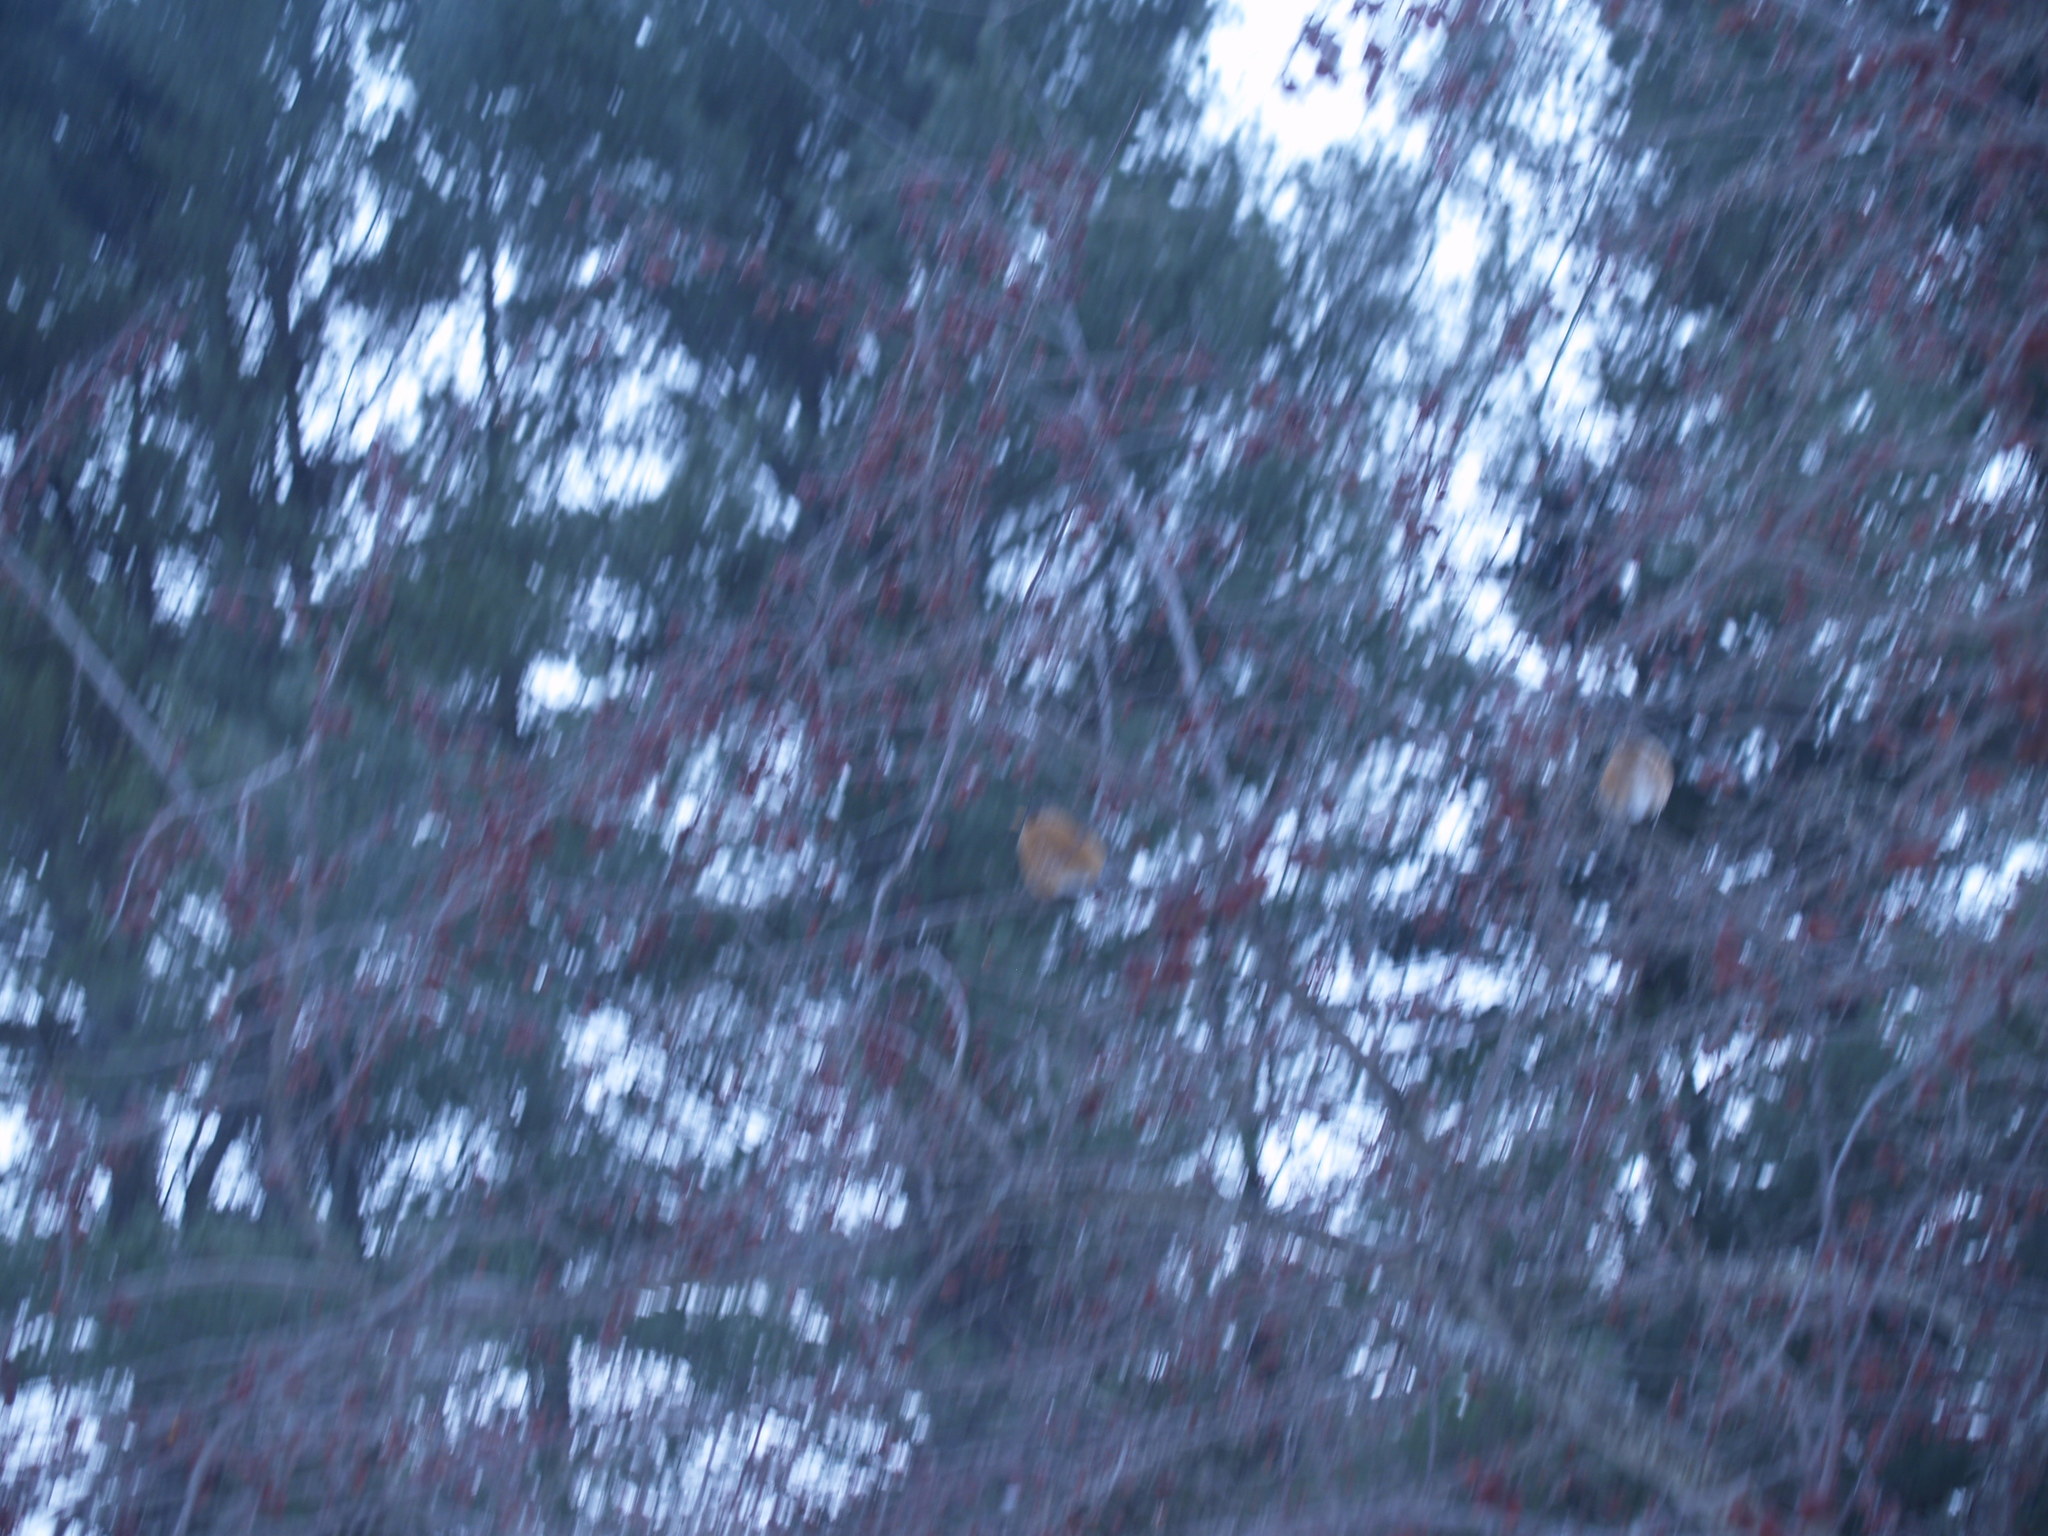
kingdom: Animalia
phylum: Chordata
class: Aves
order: Passeriformes
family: Turdidae
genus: Turdus
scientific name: Turdus migratorius
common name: American robin
